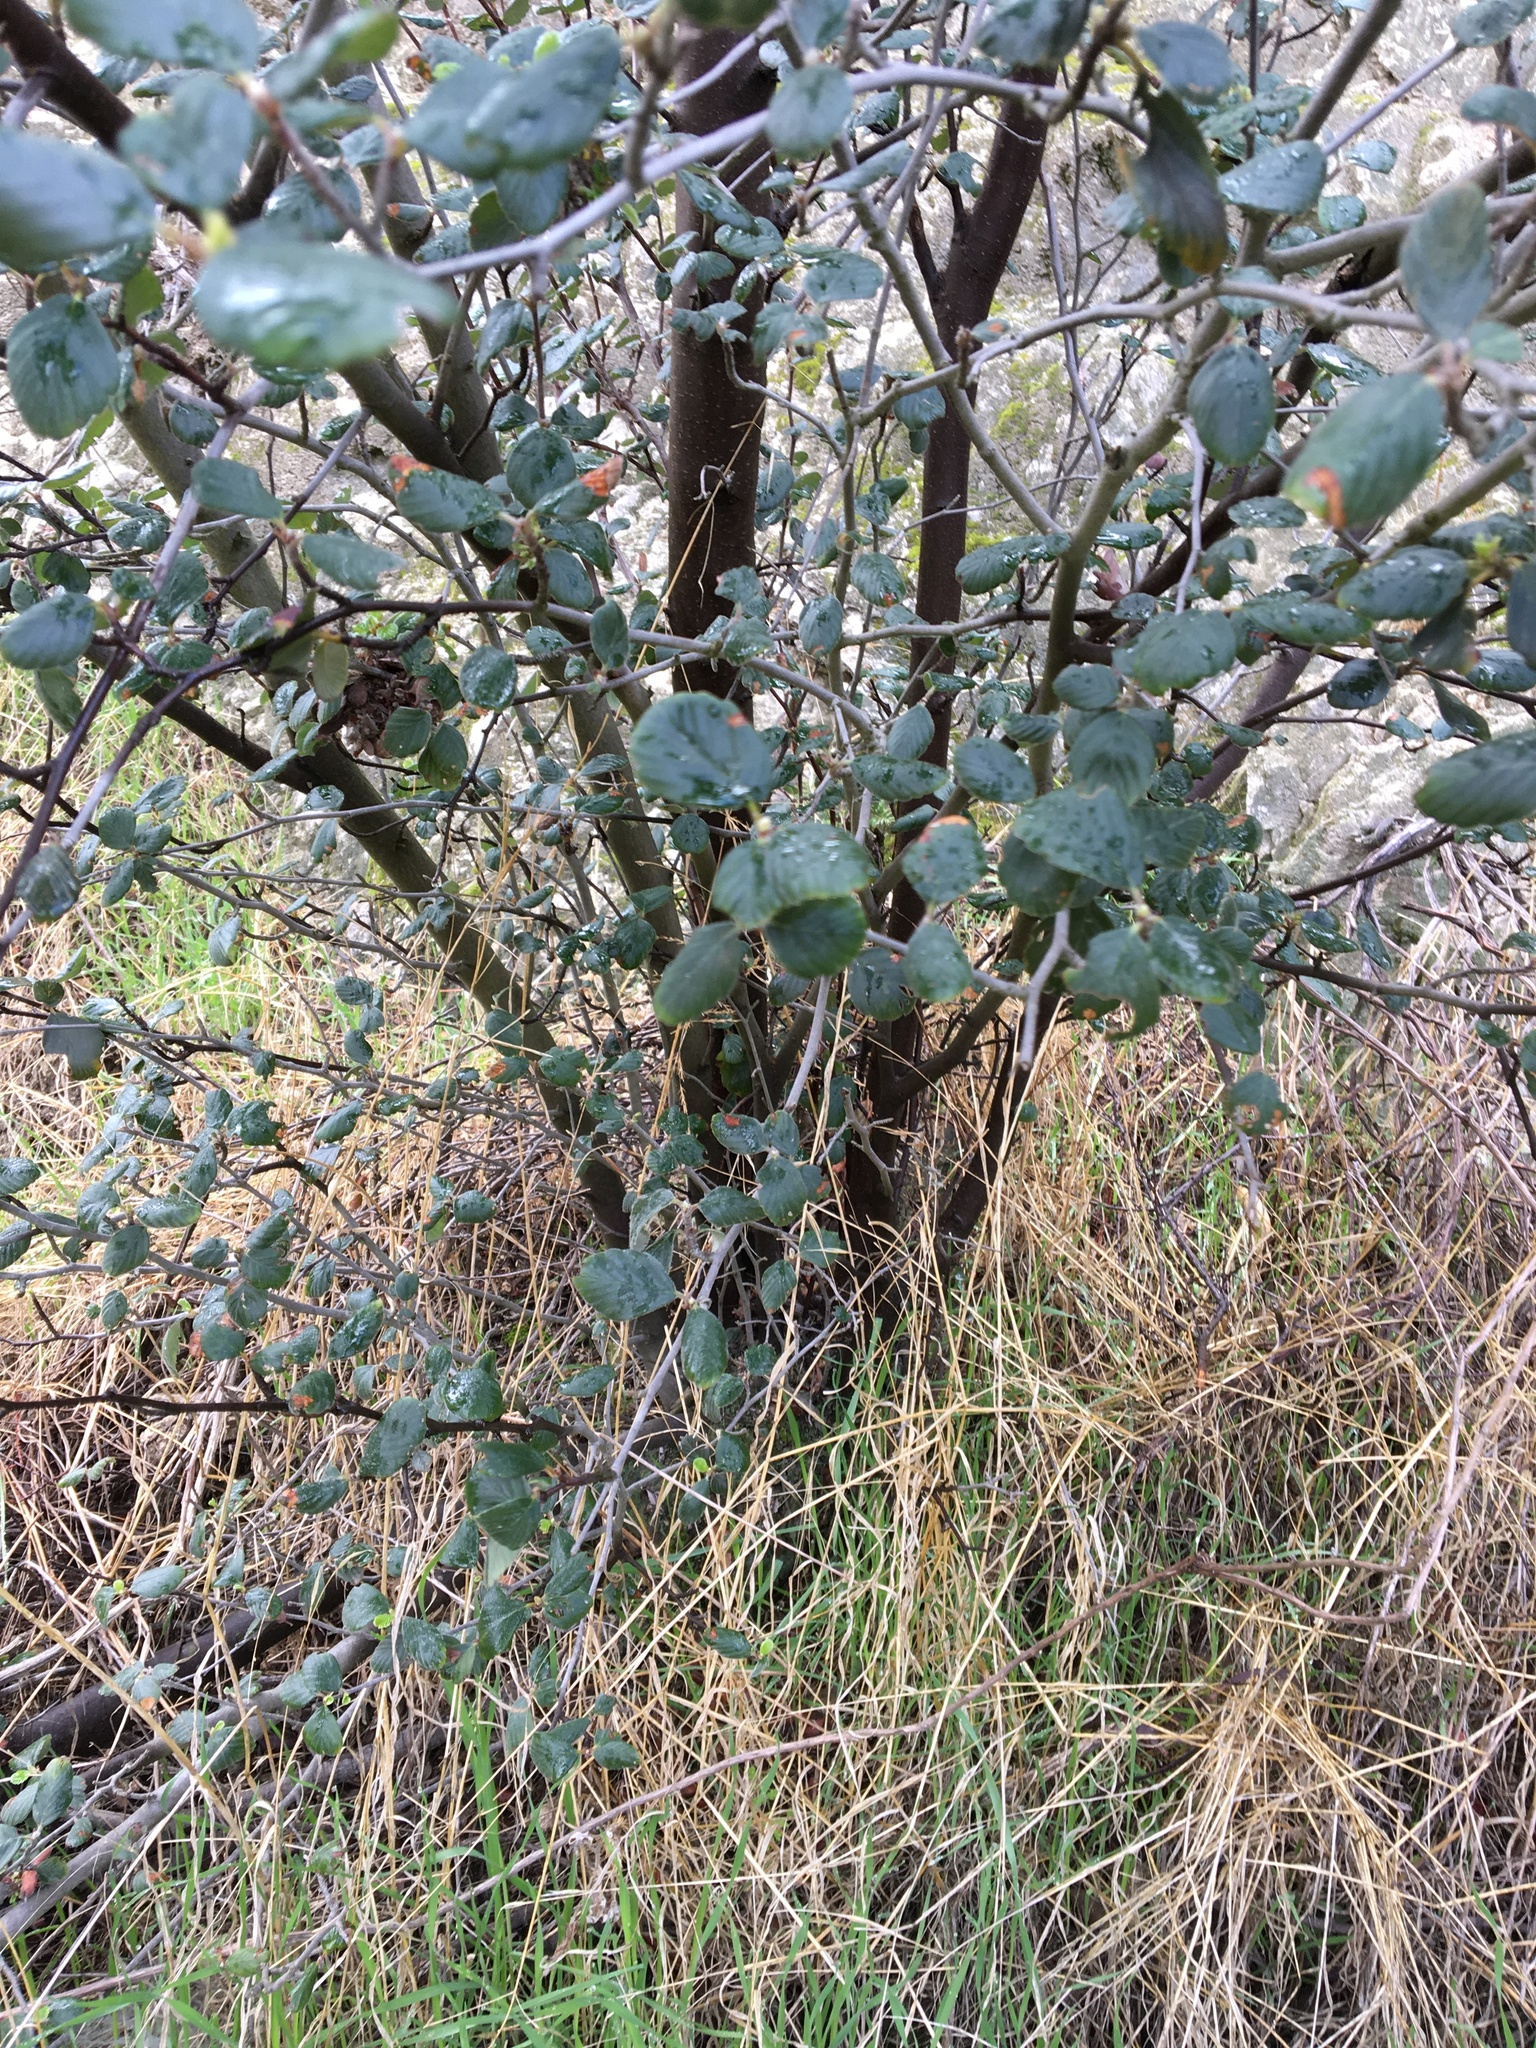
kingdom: Plantae
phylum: Tracheophyta
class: Magnoliopsida
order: Rosales
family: Rosaceae
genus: Cercocarpus
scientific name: Cercocarpus betuloides
